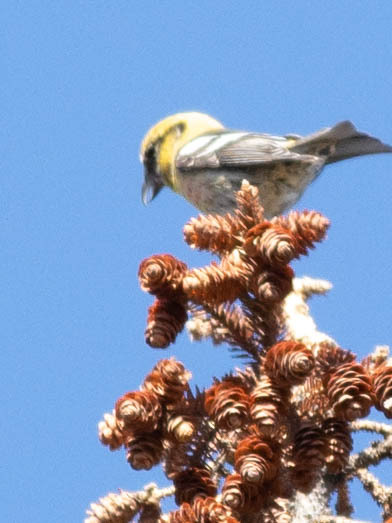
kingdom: Animalia
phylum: Chordata
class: Aves
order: Passeriformes
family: Fringillidae
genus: Loxia
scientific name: Loxia leucoptera
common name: Two-barred crossbill
